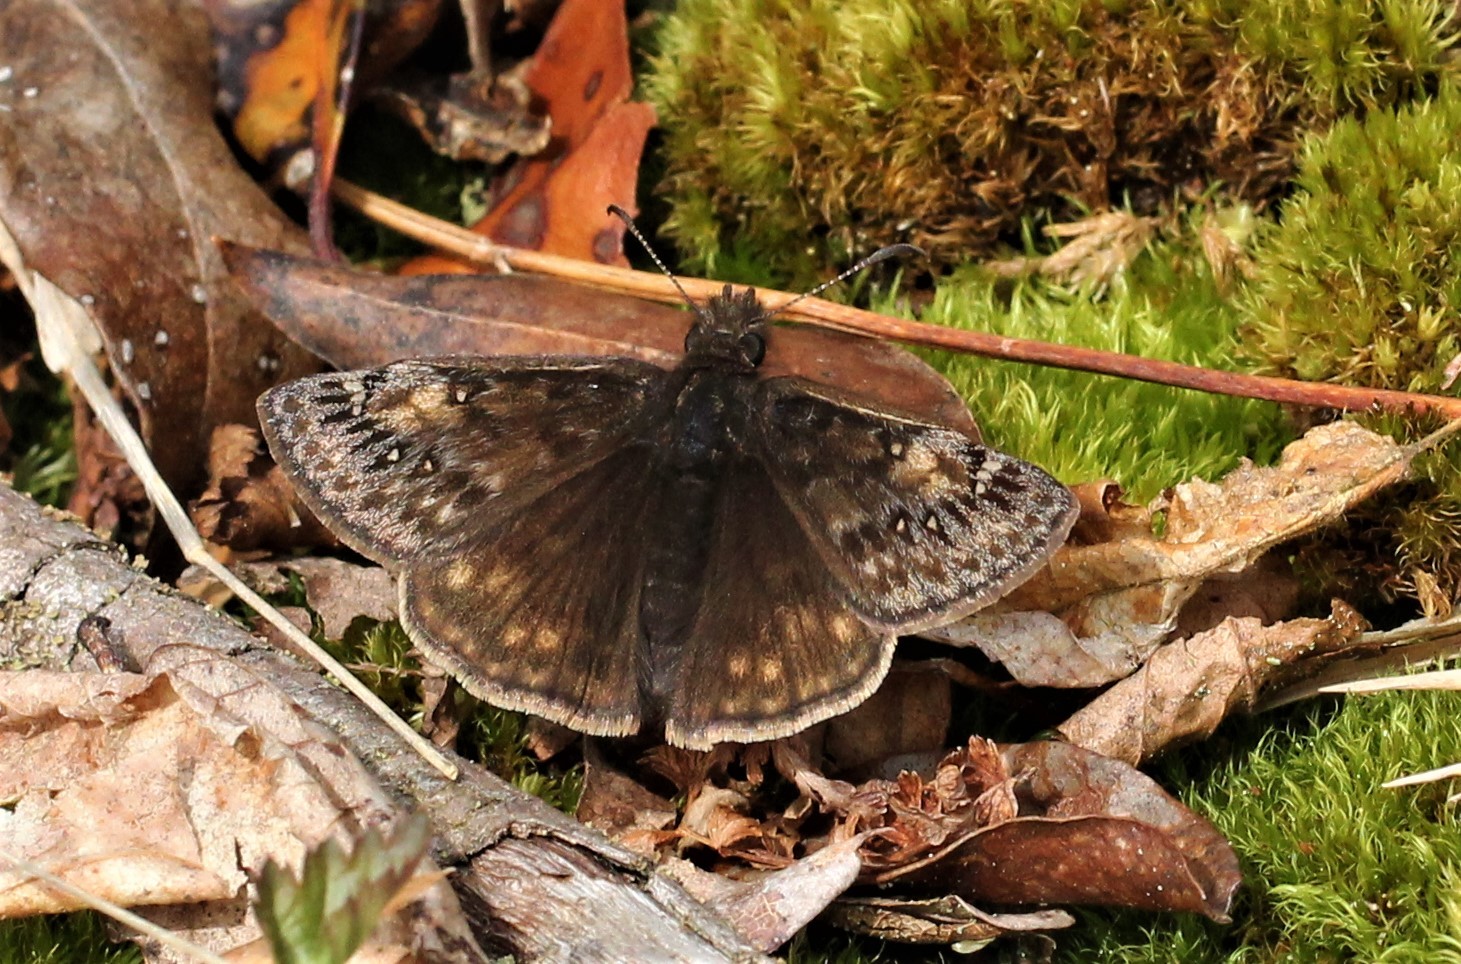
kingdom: Animalia
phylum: Arthropoda
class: Insecta
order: Lepidoptera
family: Hesperiidae
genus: Erynnis
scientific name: Erynnis juvenalis
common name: Juvenal's duskywing
